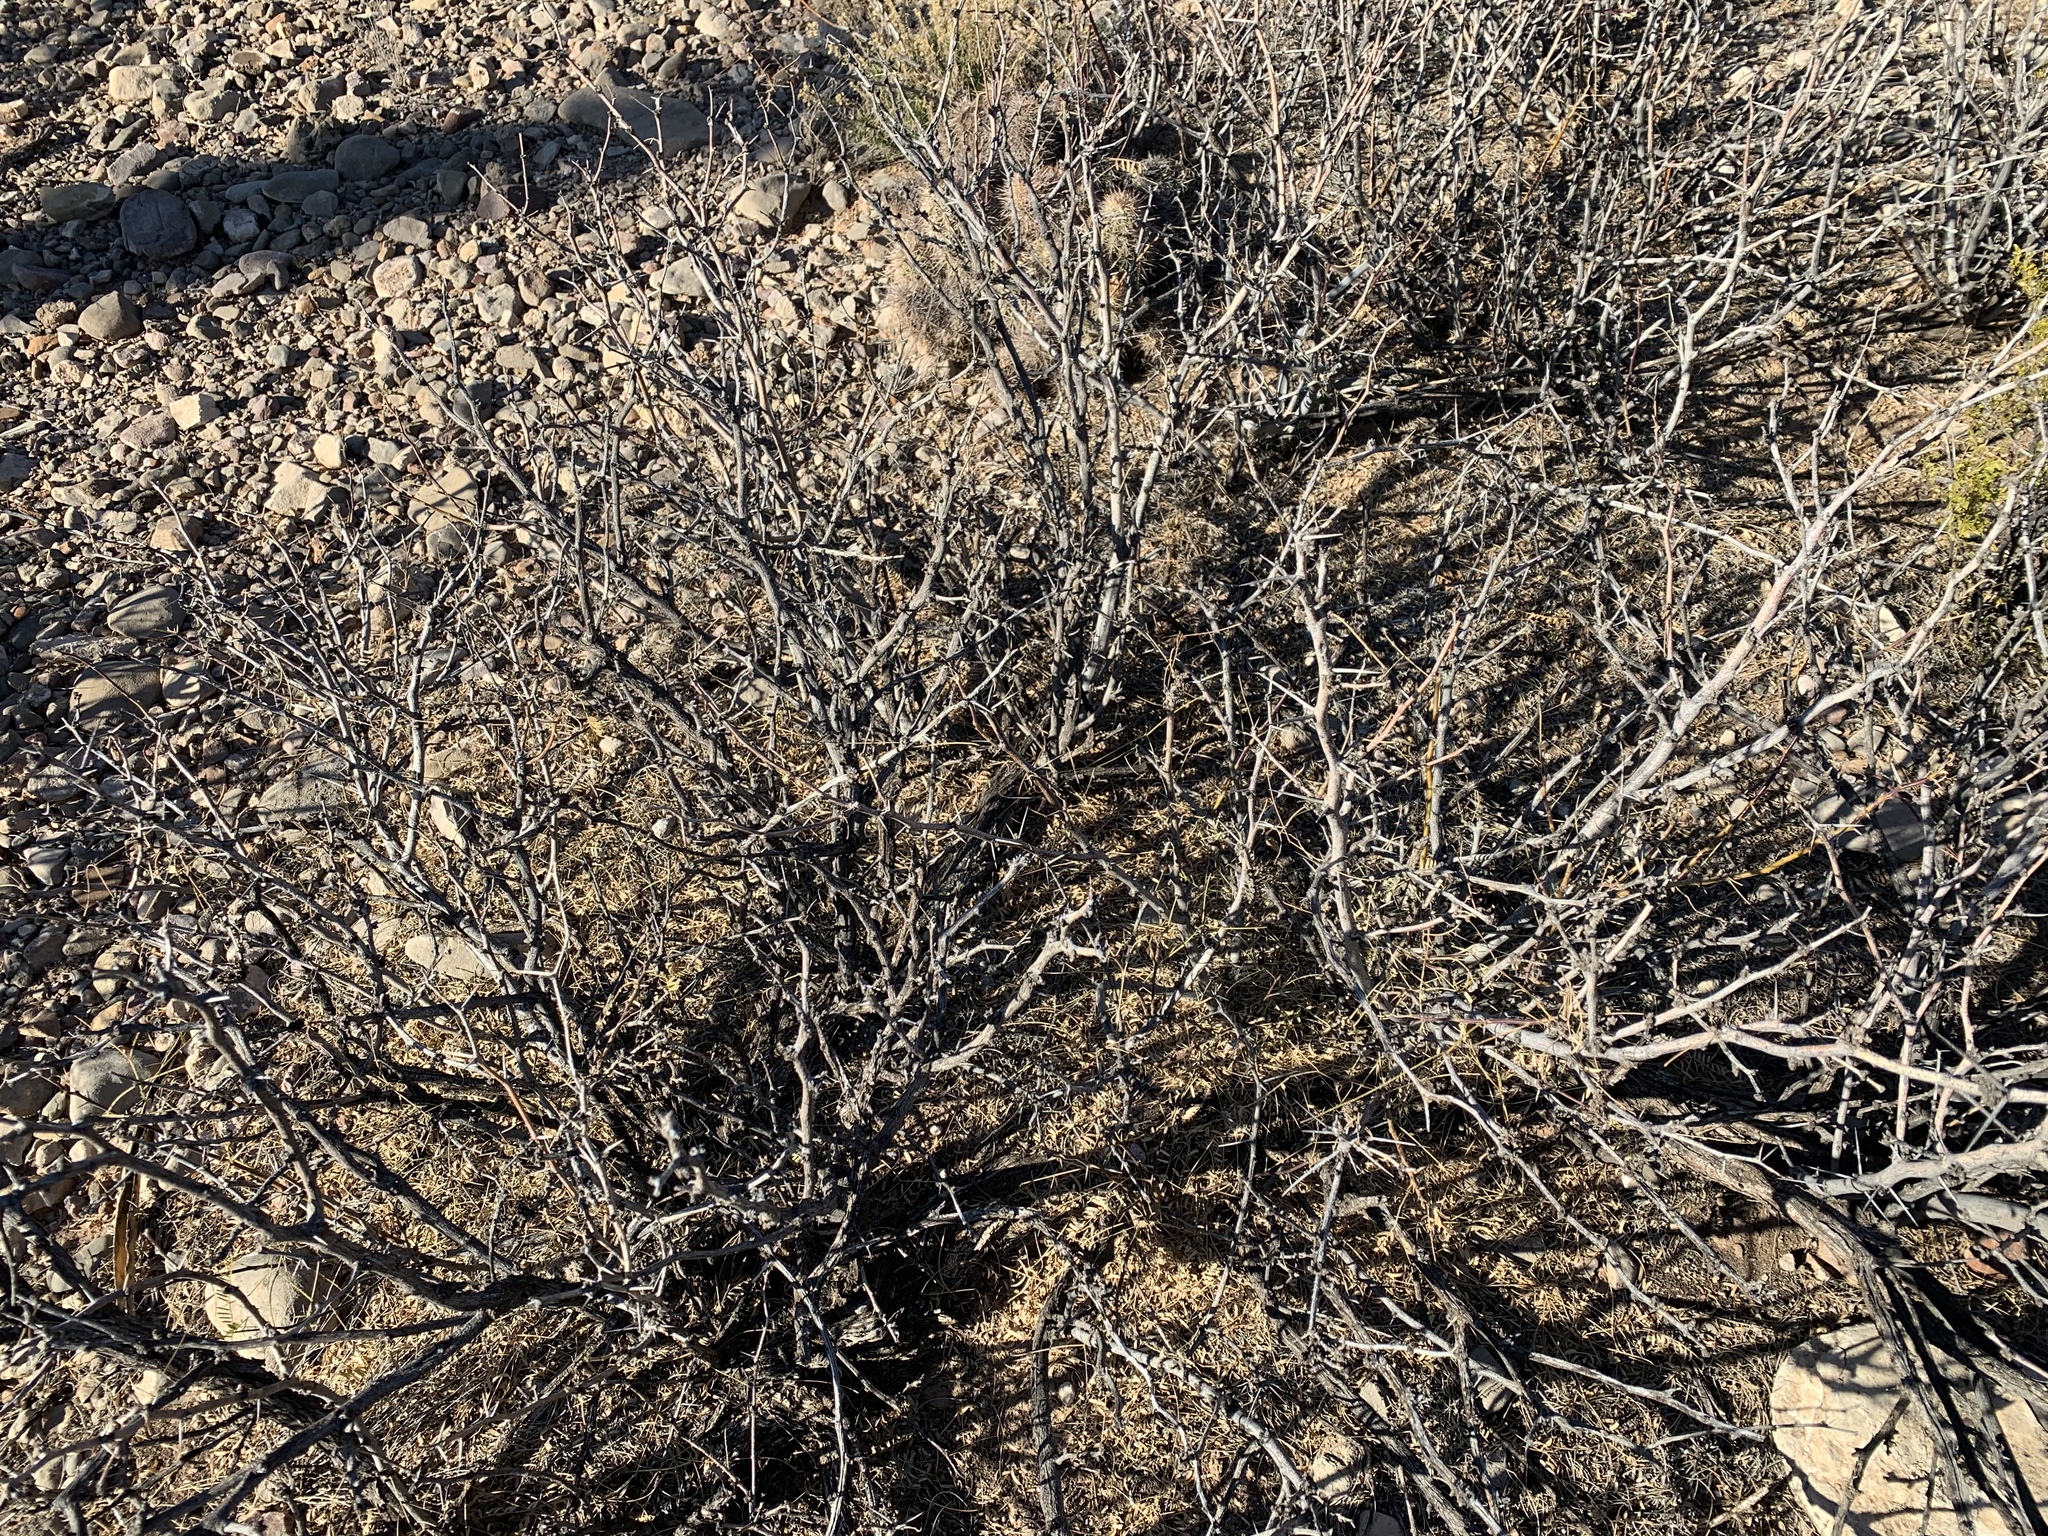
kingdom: Plantae
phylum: Tracheophyta
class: Magnoliopsida
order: Fabales
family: Fabaceae
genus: Prosopis
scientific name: Prosopis glandulosa
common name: Honey mesquite
